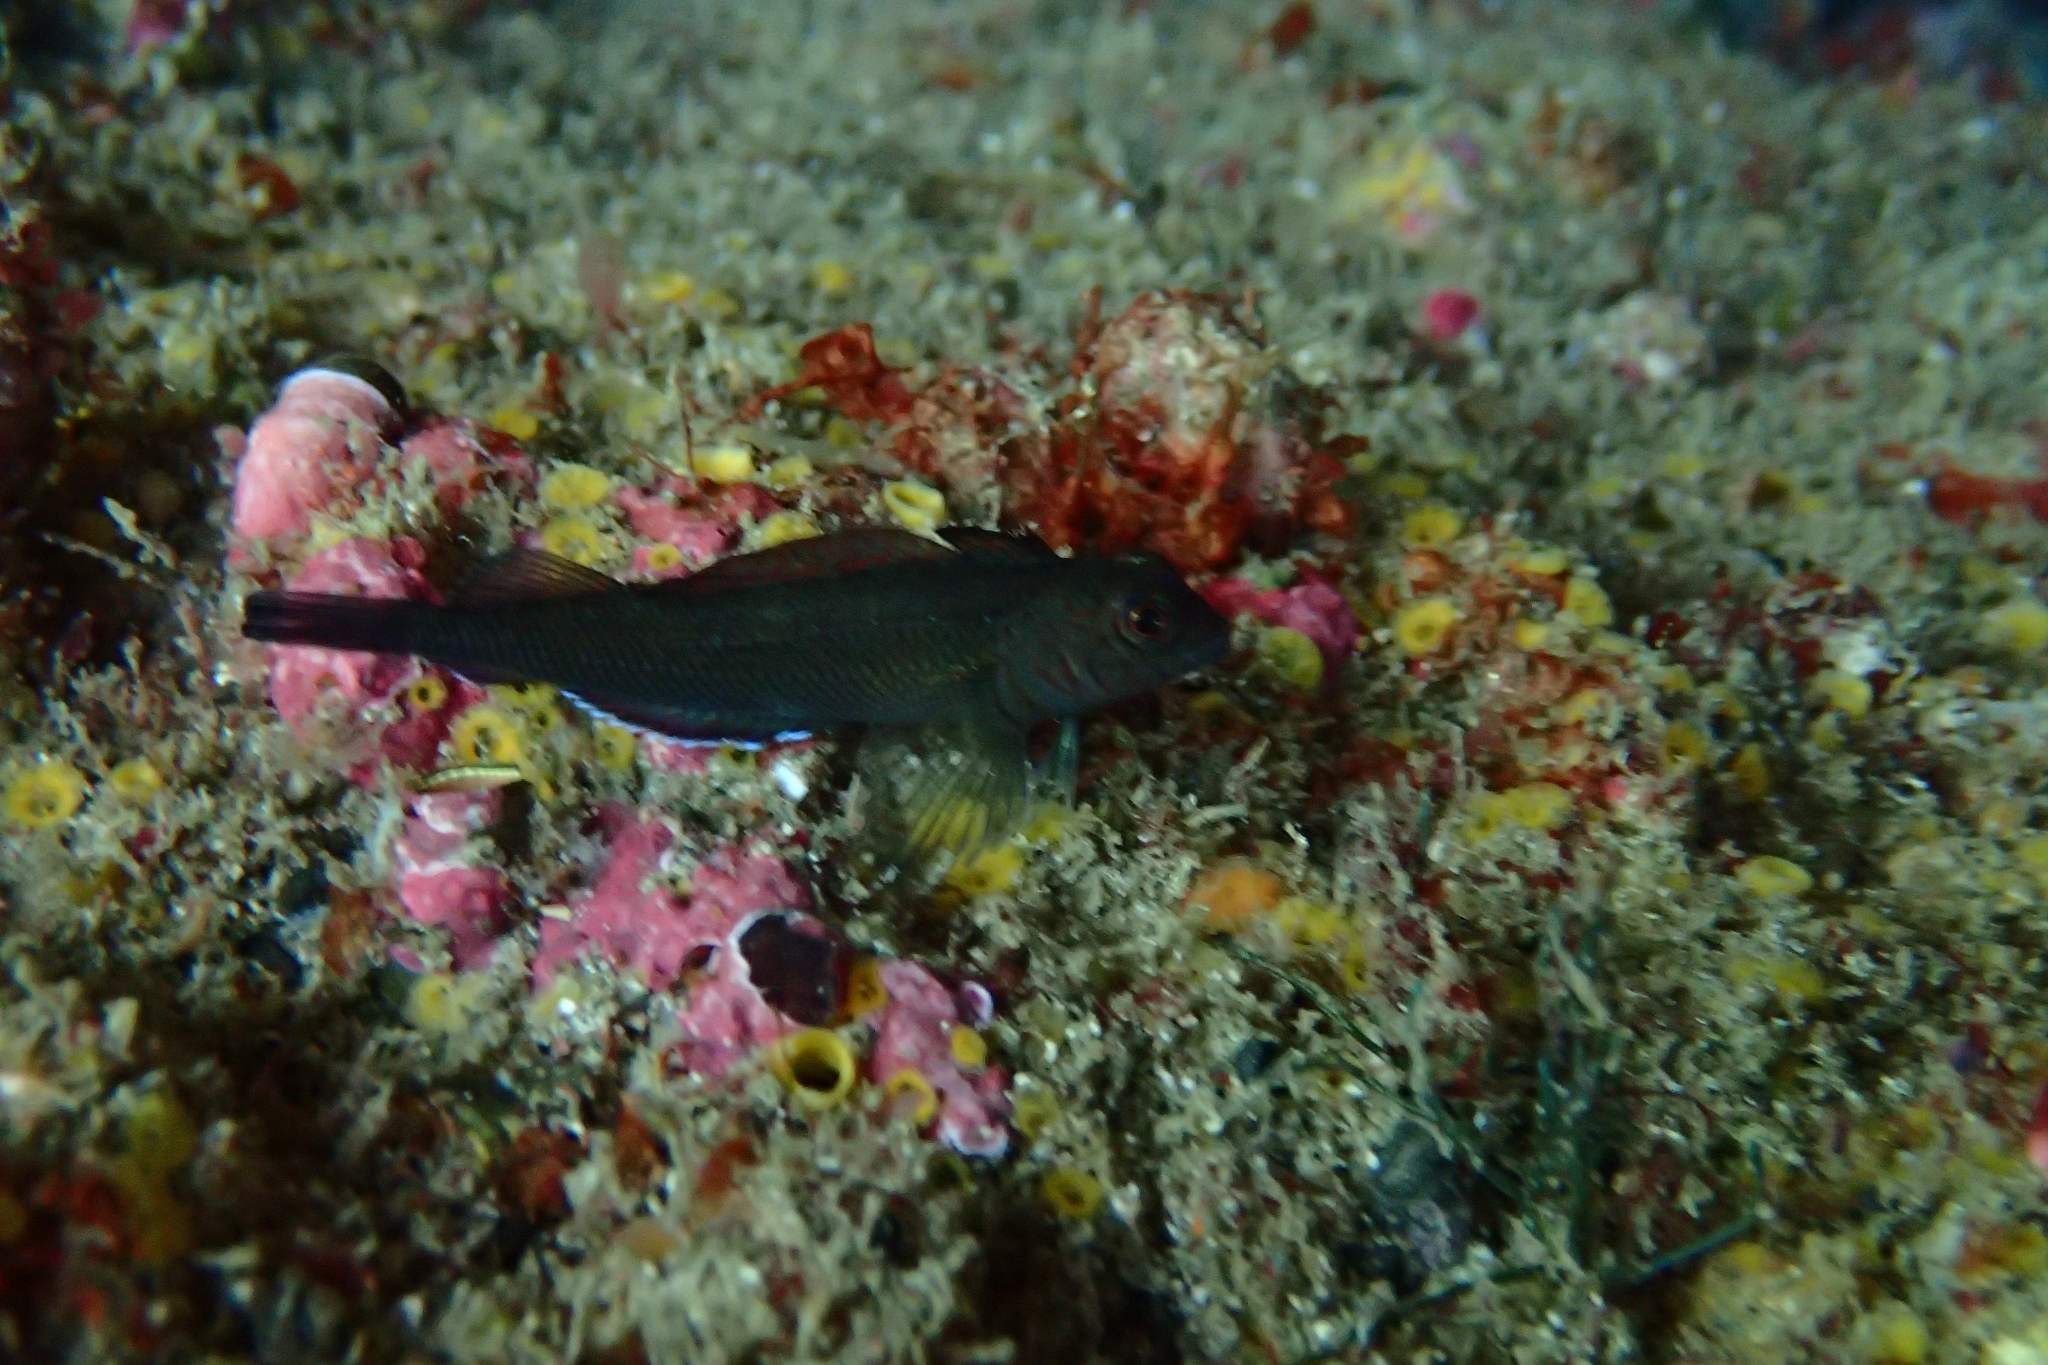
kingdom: Animalia
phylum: Chordata
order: Perciformes
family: Tripterygiidae
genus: Forsterygion
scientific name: Forsterygion lapillum
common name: Common triplefin
